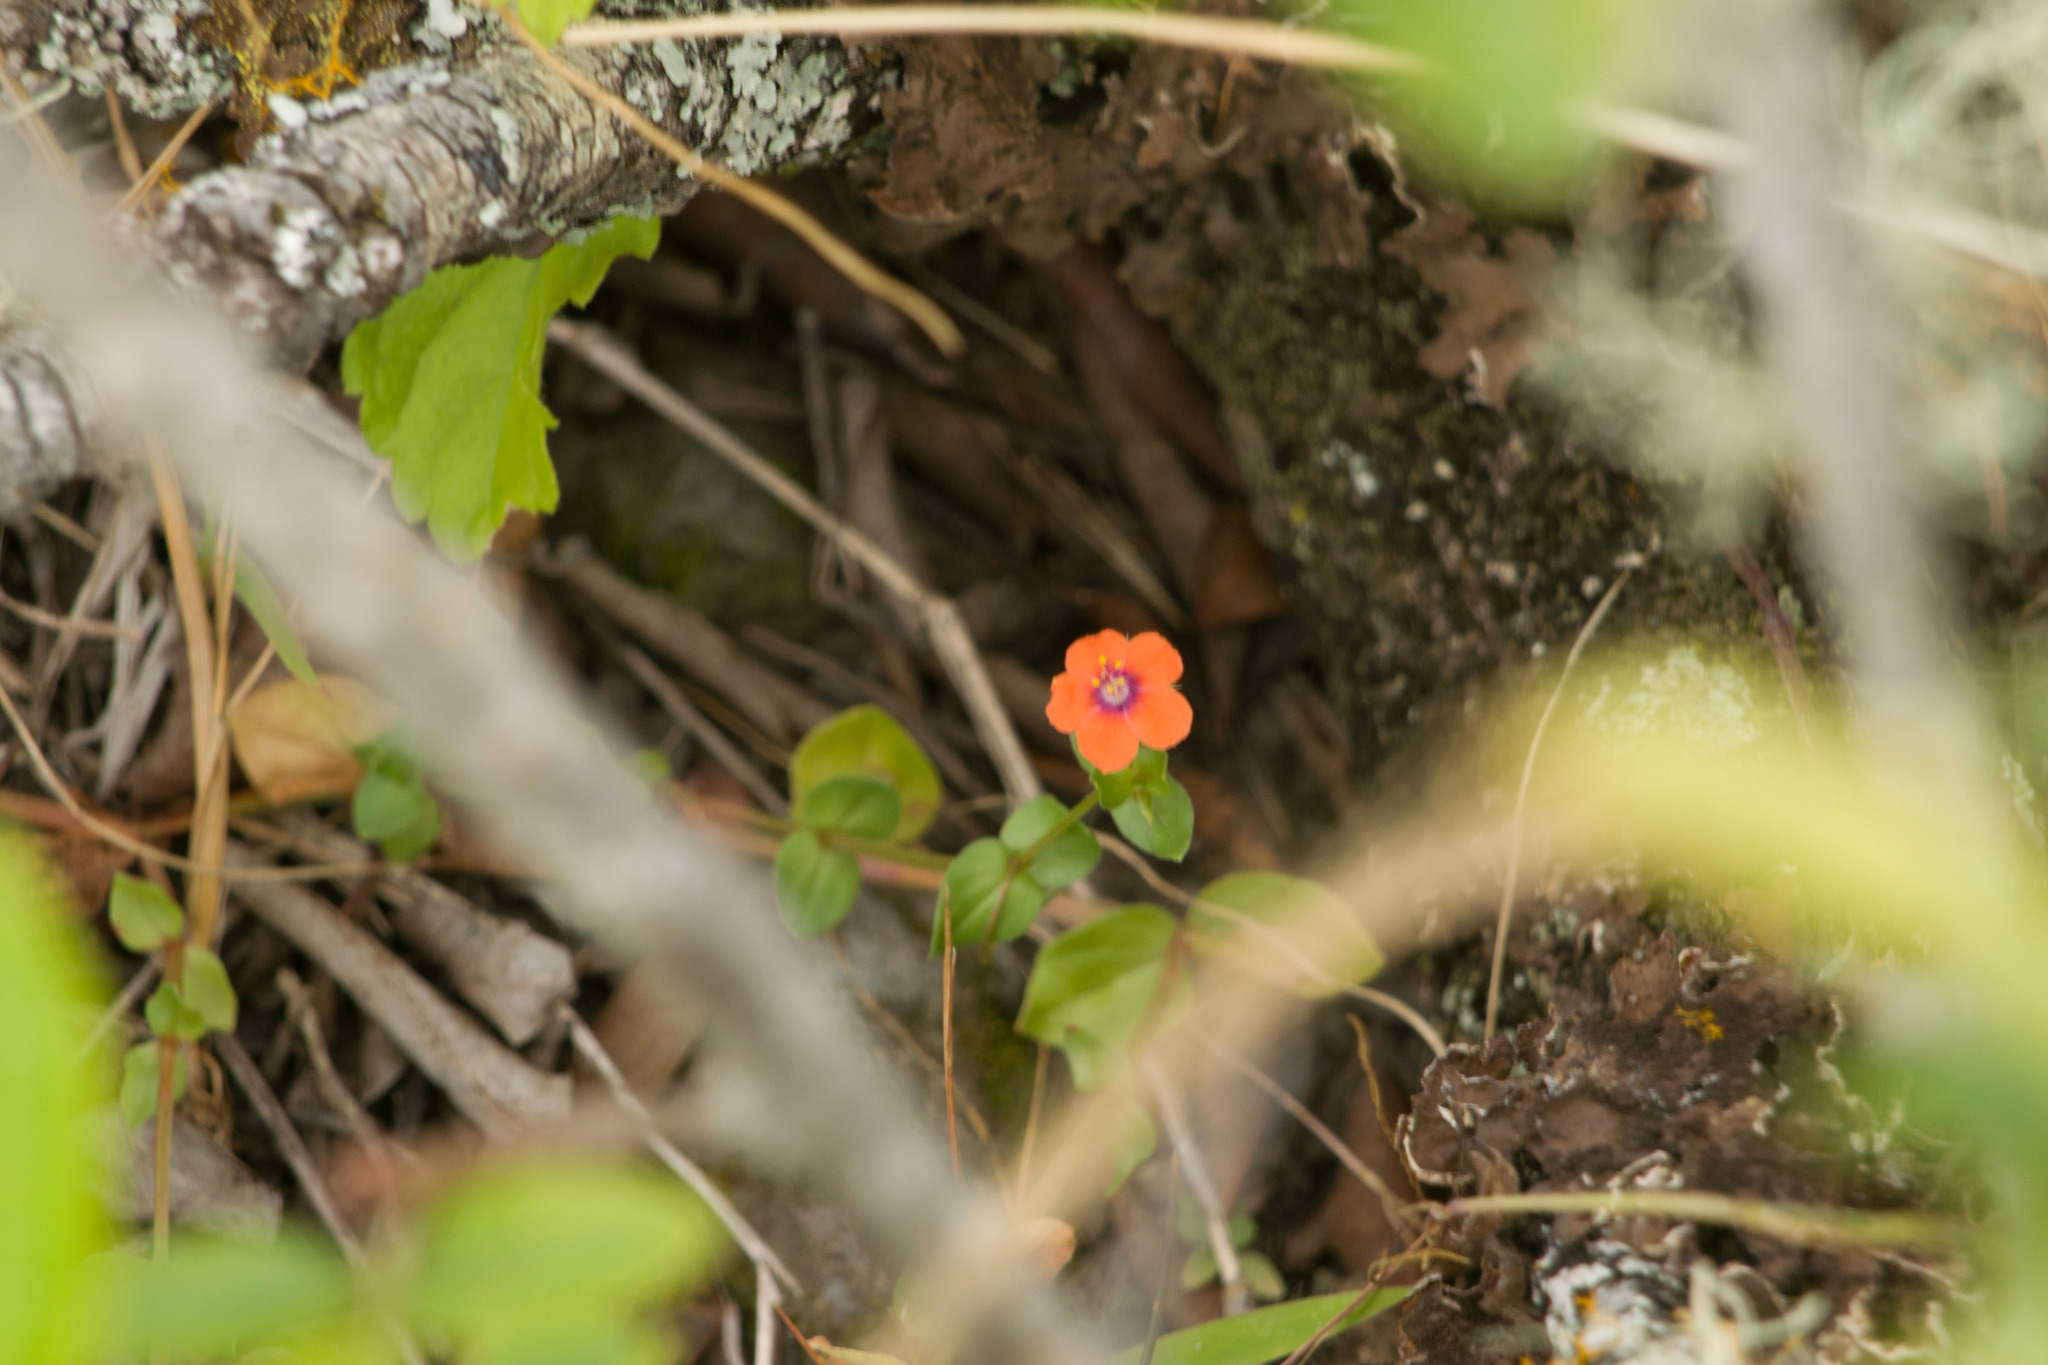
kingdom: Plantae
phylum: Tracheophyta
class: Magnoliopsida
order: Ericales
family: Primulaceae
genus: Lysimachia
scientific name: Lysimachia arvensis
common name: Scarlet pimpernel
